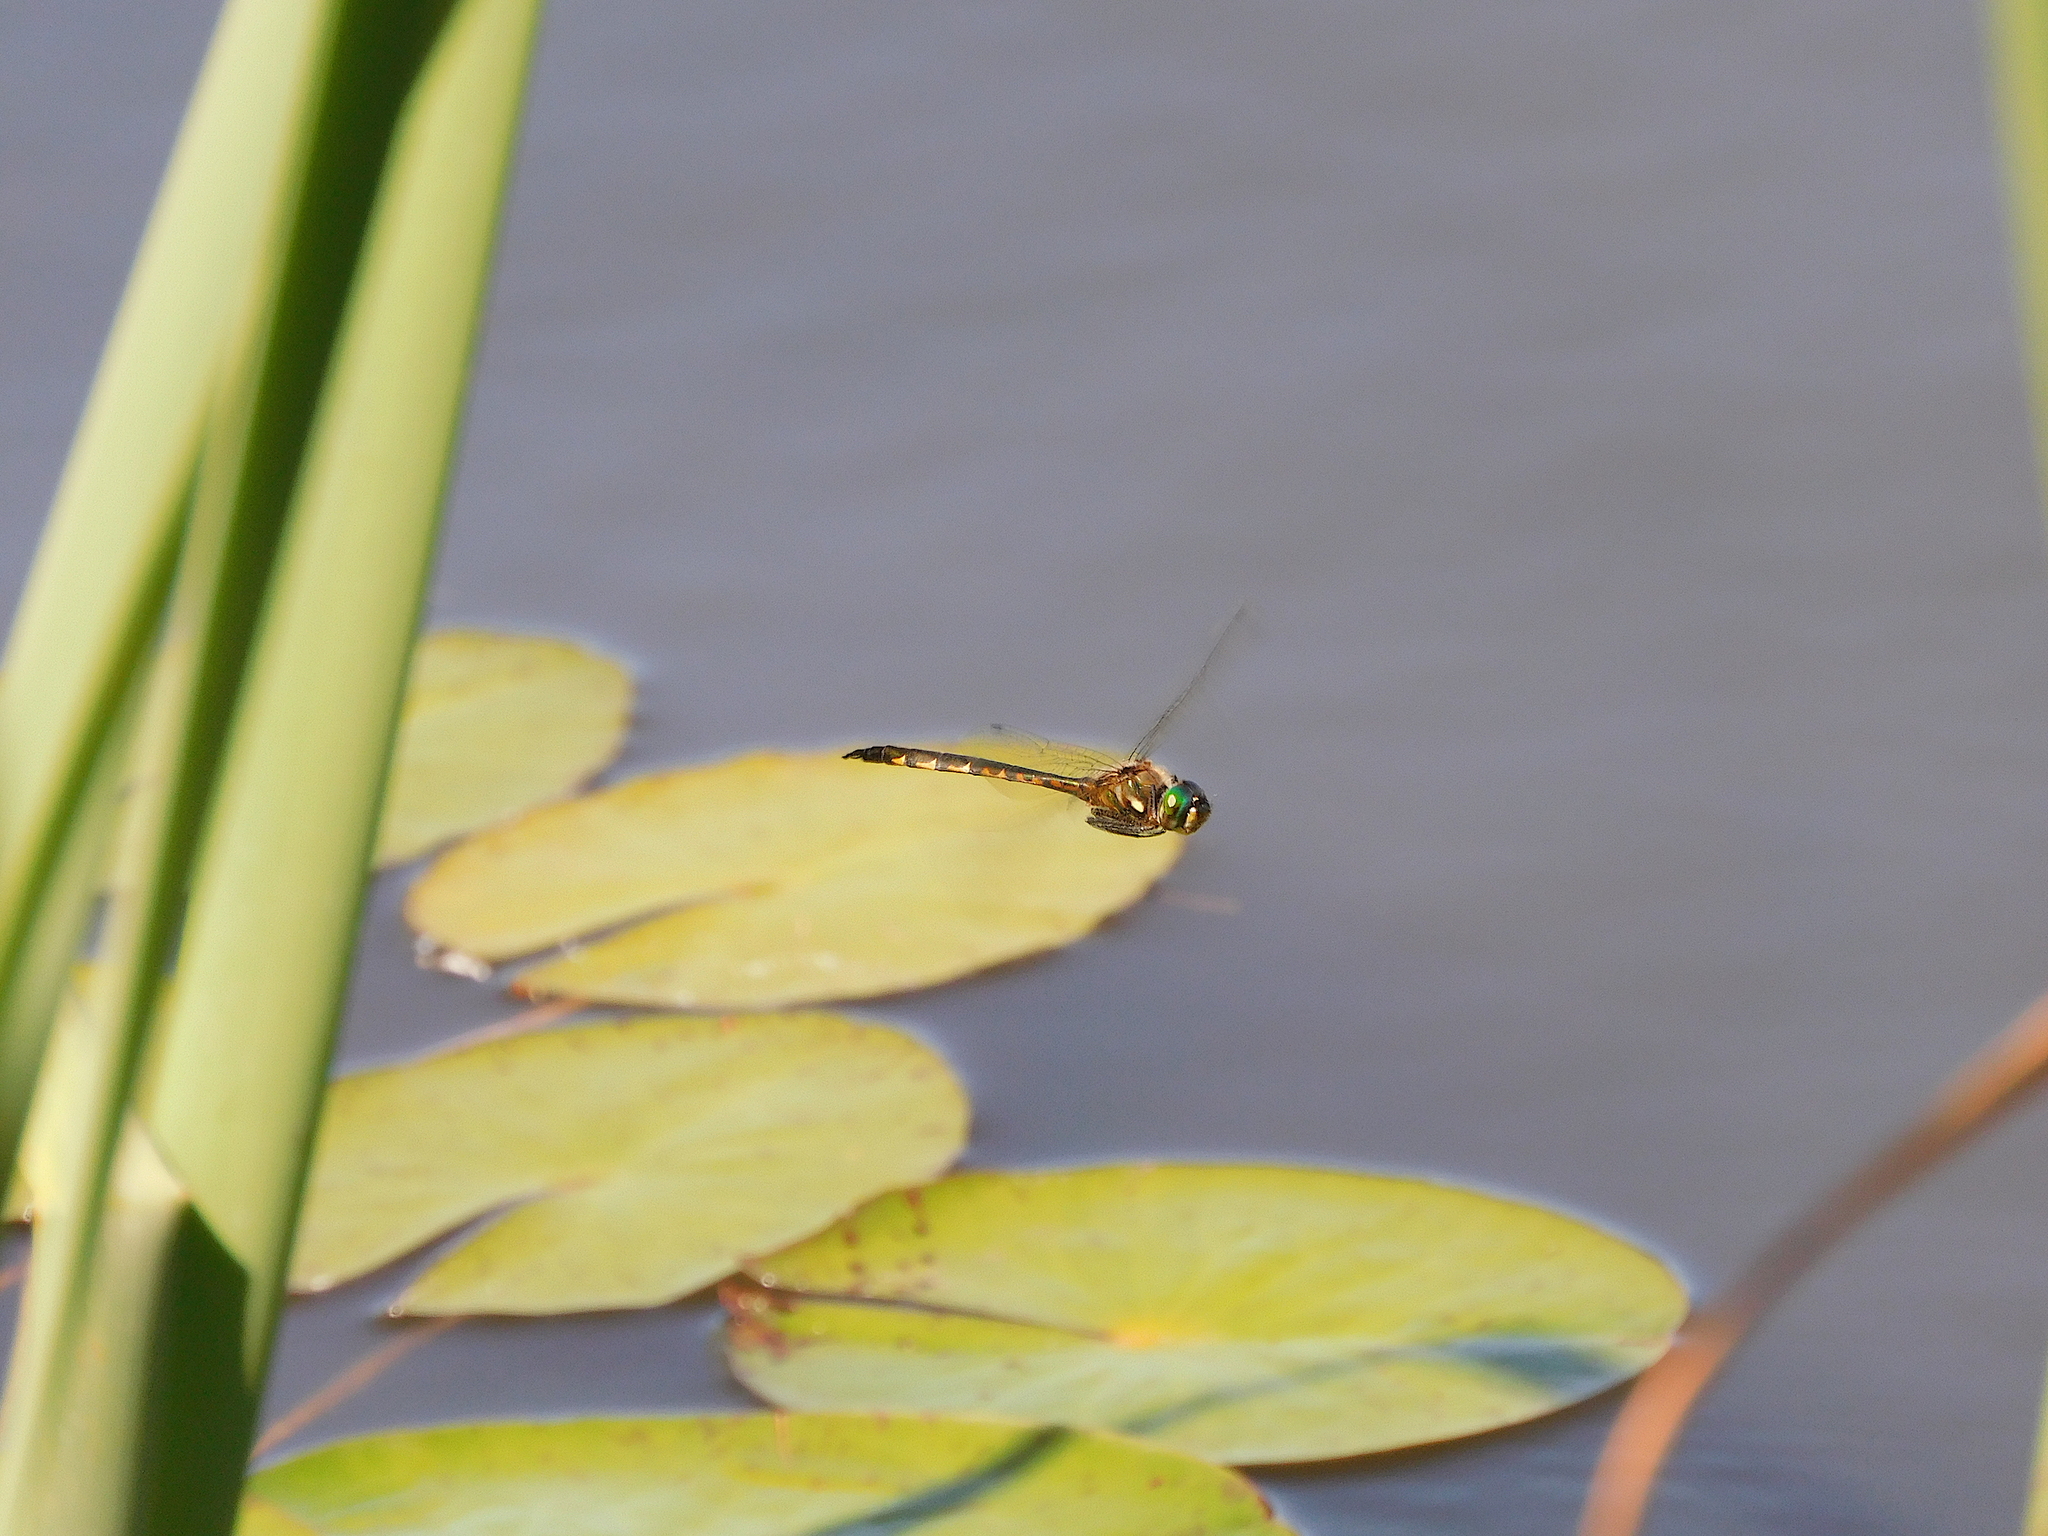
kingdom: Animalia
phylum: Arthropoda
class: Insecta
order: Odonata
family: Corduliidae
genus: Hemicordulia
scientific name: Hemicordulia armstrongi
